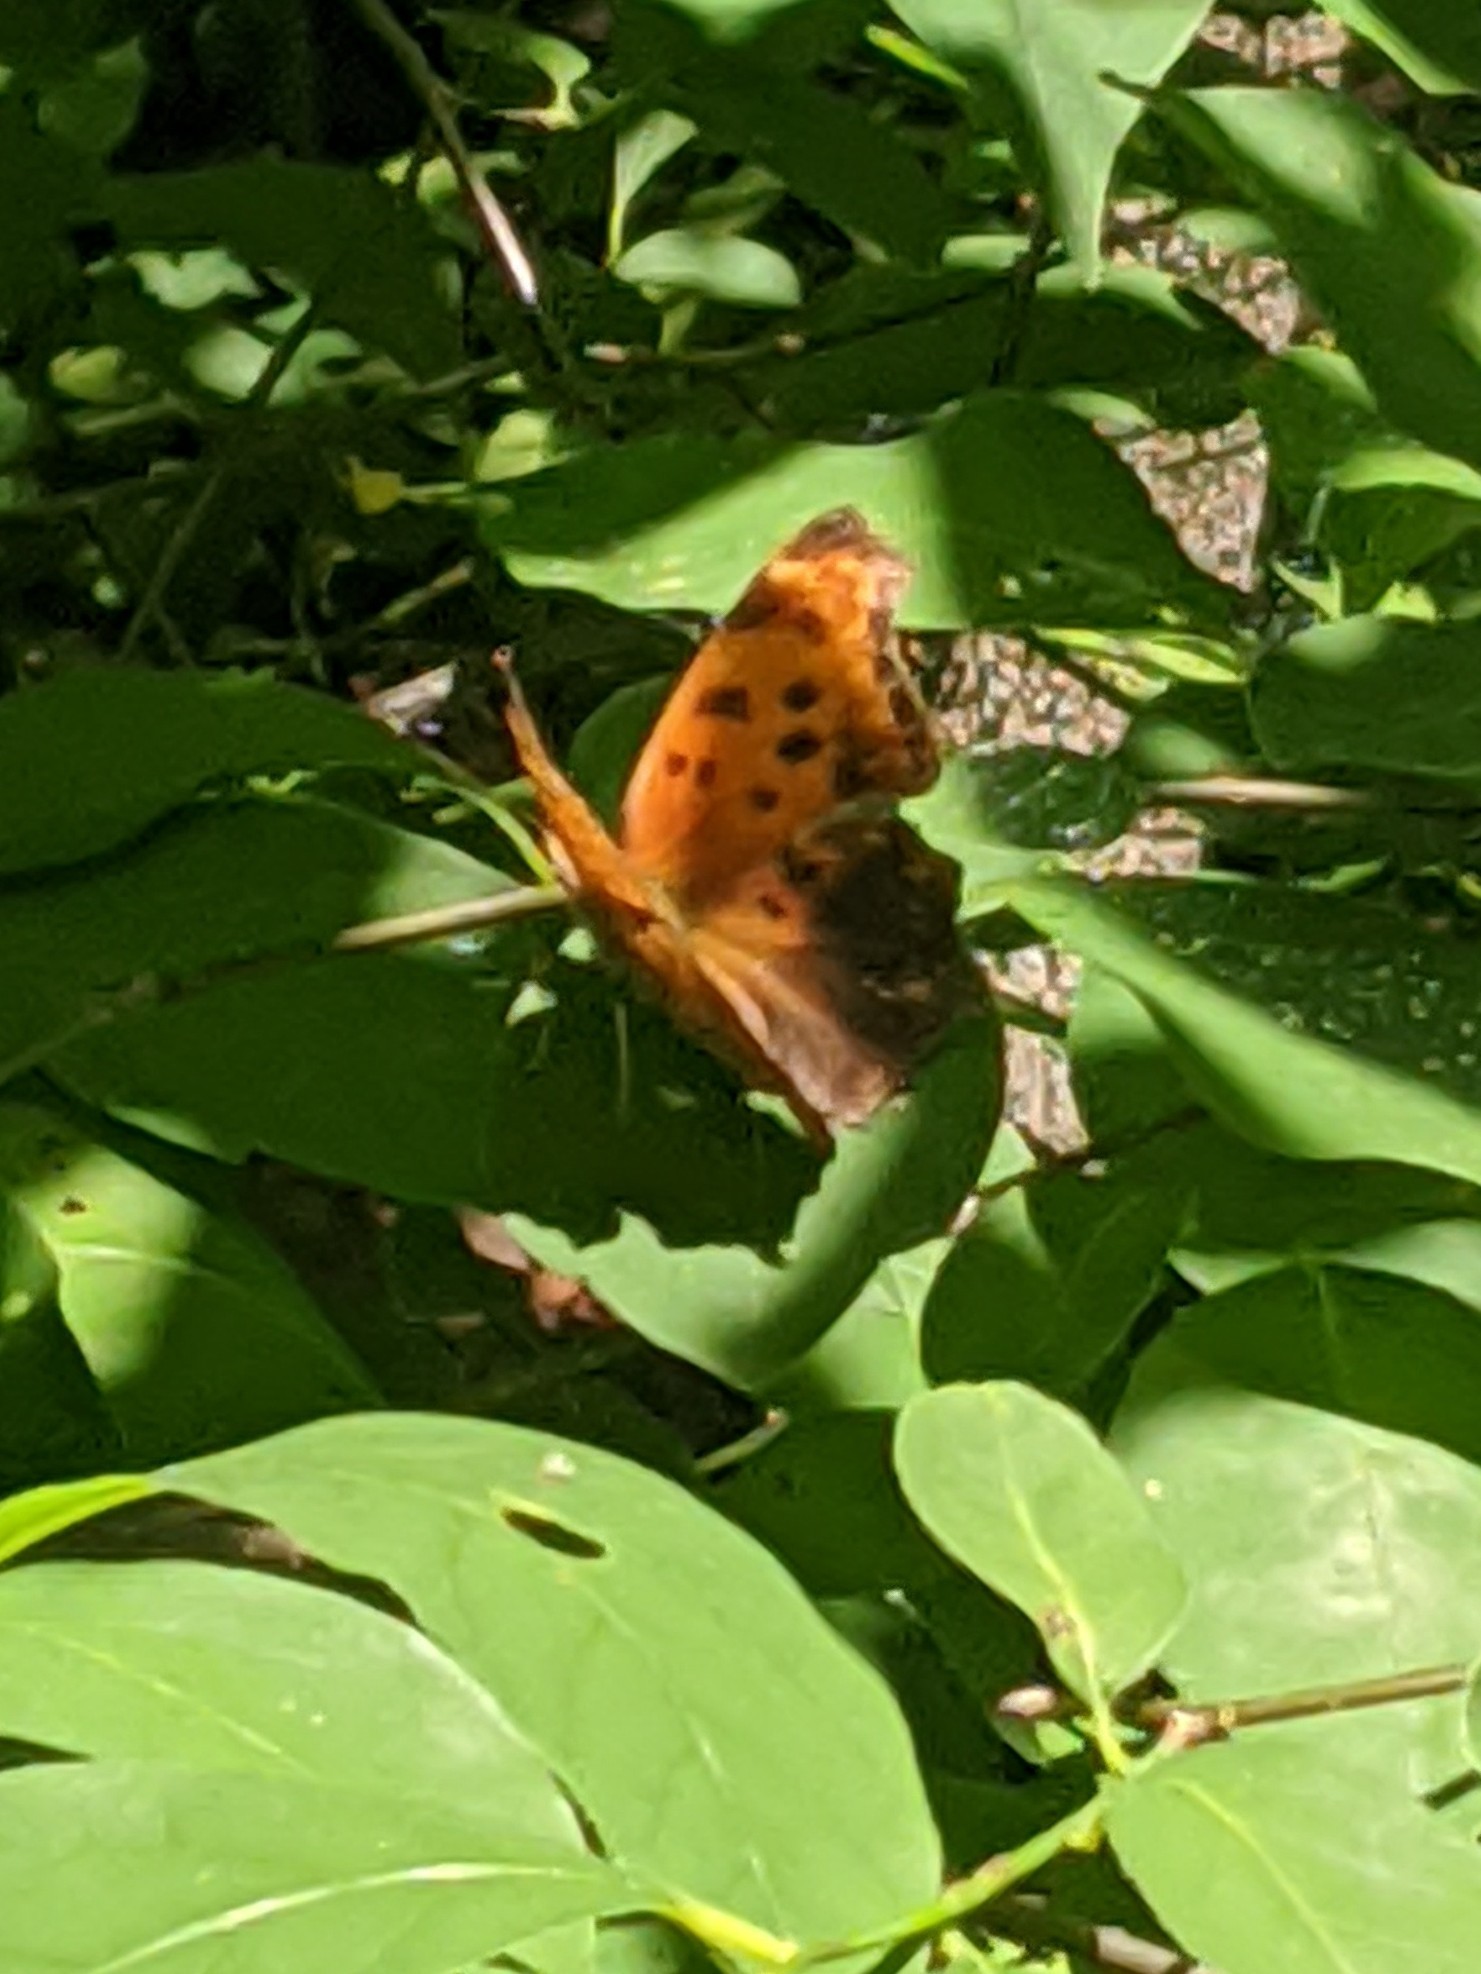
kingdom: Animalia
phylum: Arthropoda
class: Insecta
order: Lepidoptera
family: Nymphalidae
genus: Polygonia
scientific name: Polygonia comma
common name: Eastern comma
